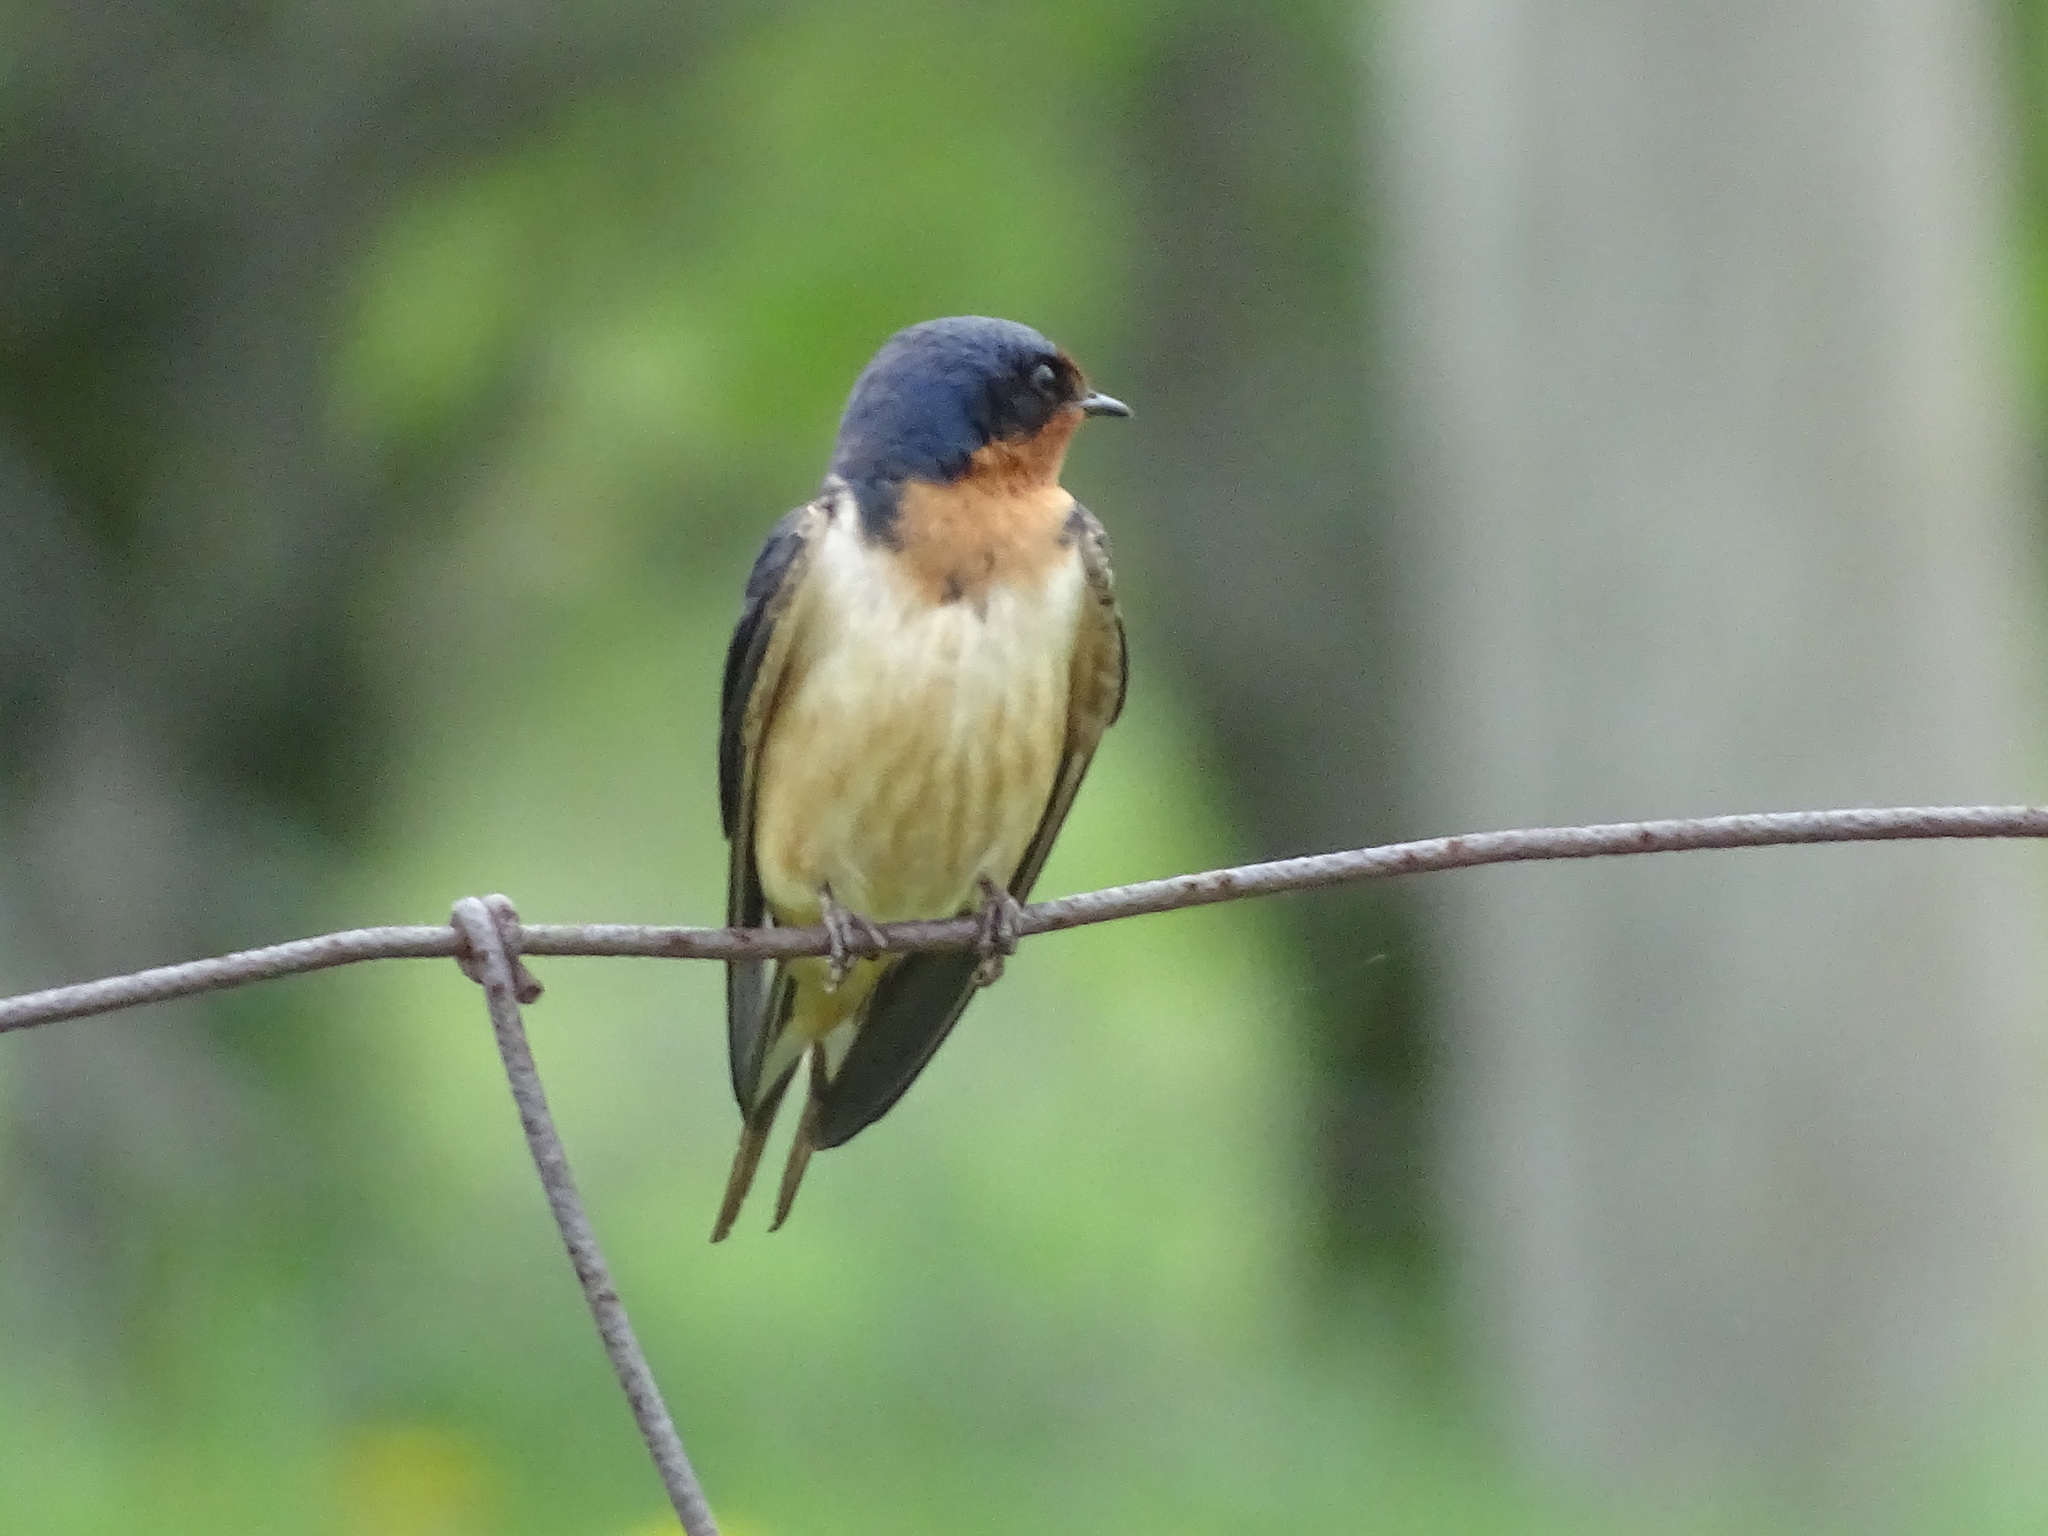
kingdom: Animalia
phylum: Chordata
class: Aves
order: Passeriformes
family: Hirundinidae
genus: Hirundo
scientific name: Hirundo rustica
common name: Barn swallow
